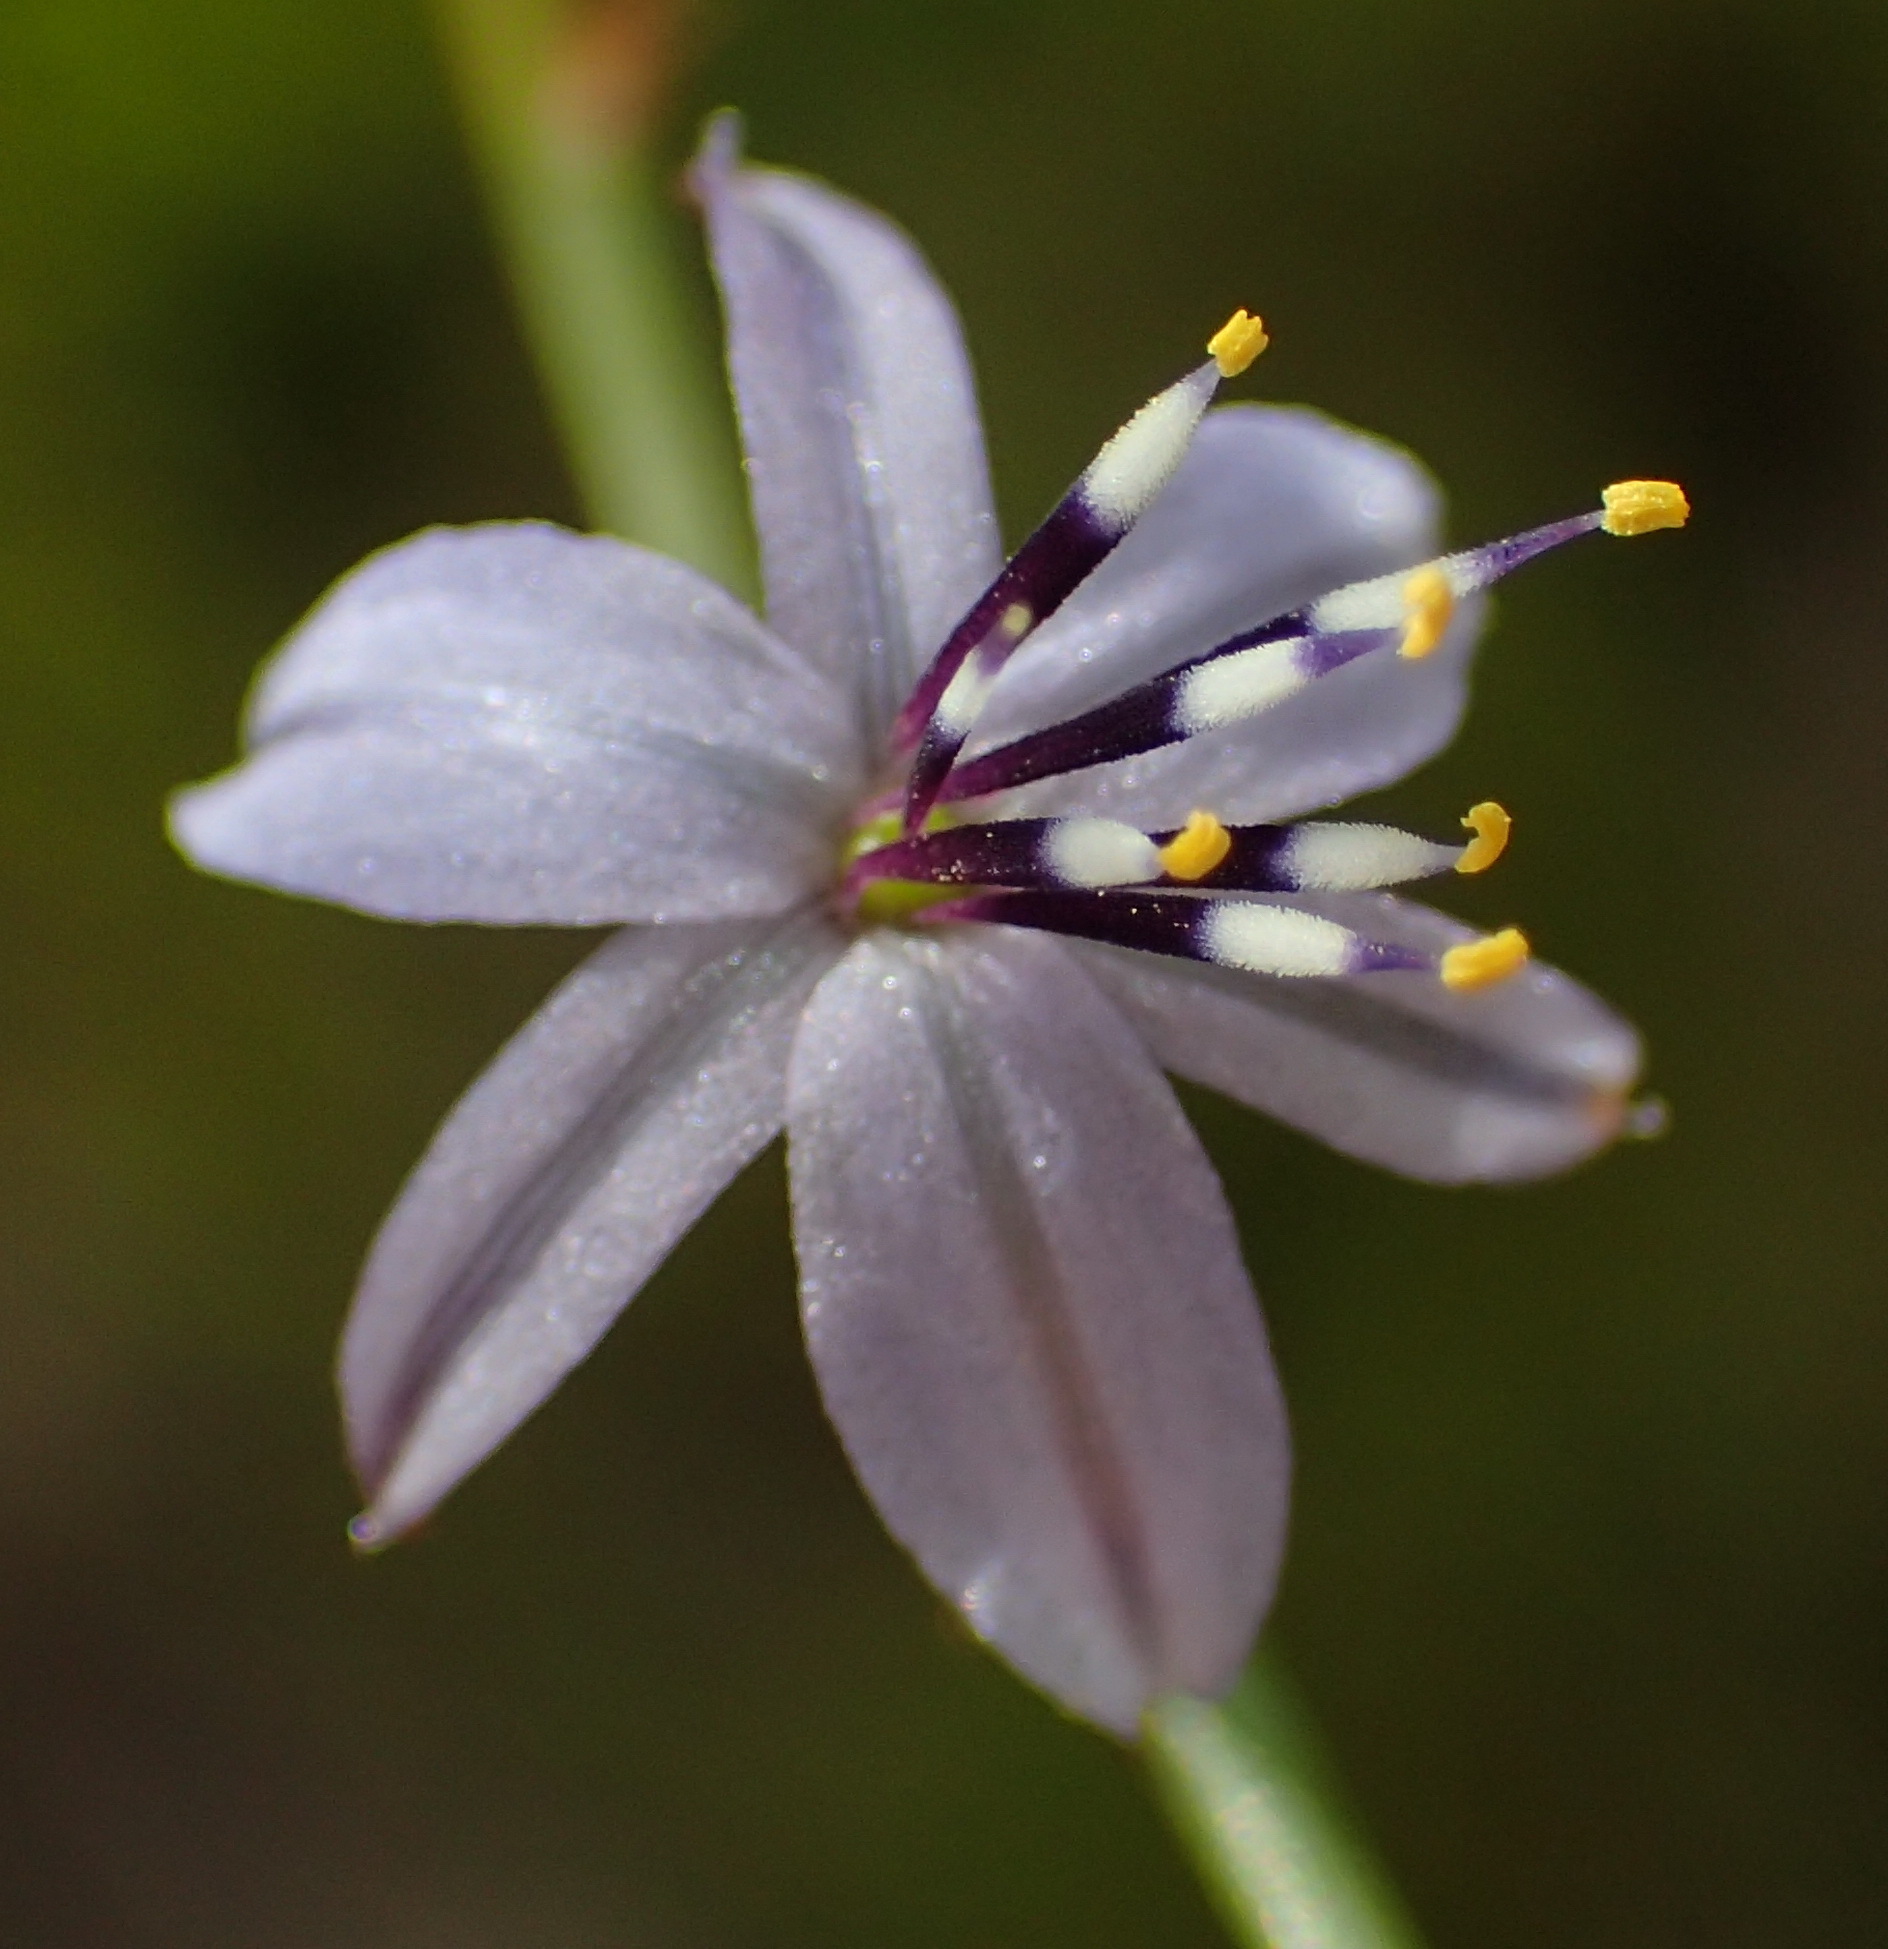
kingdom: Plantae
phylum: Tracheophyta
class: Liliopsida
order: Asparagales
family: Asphodelaceae
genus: Caesia
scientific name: Caesia contorta
